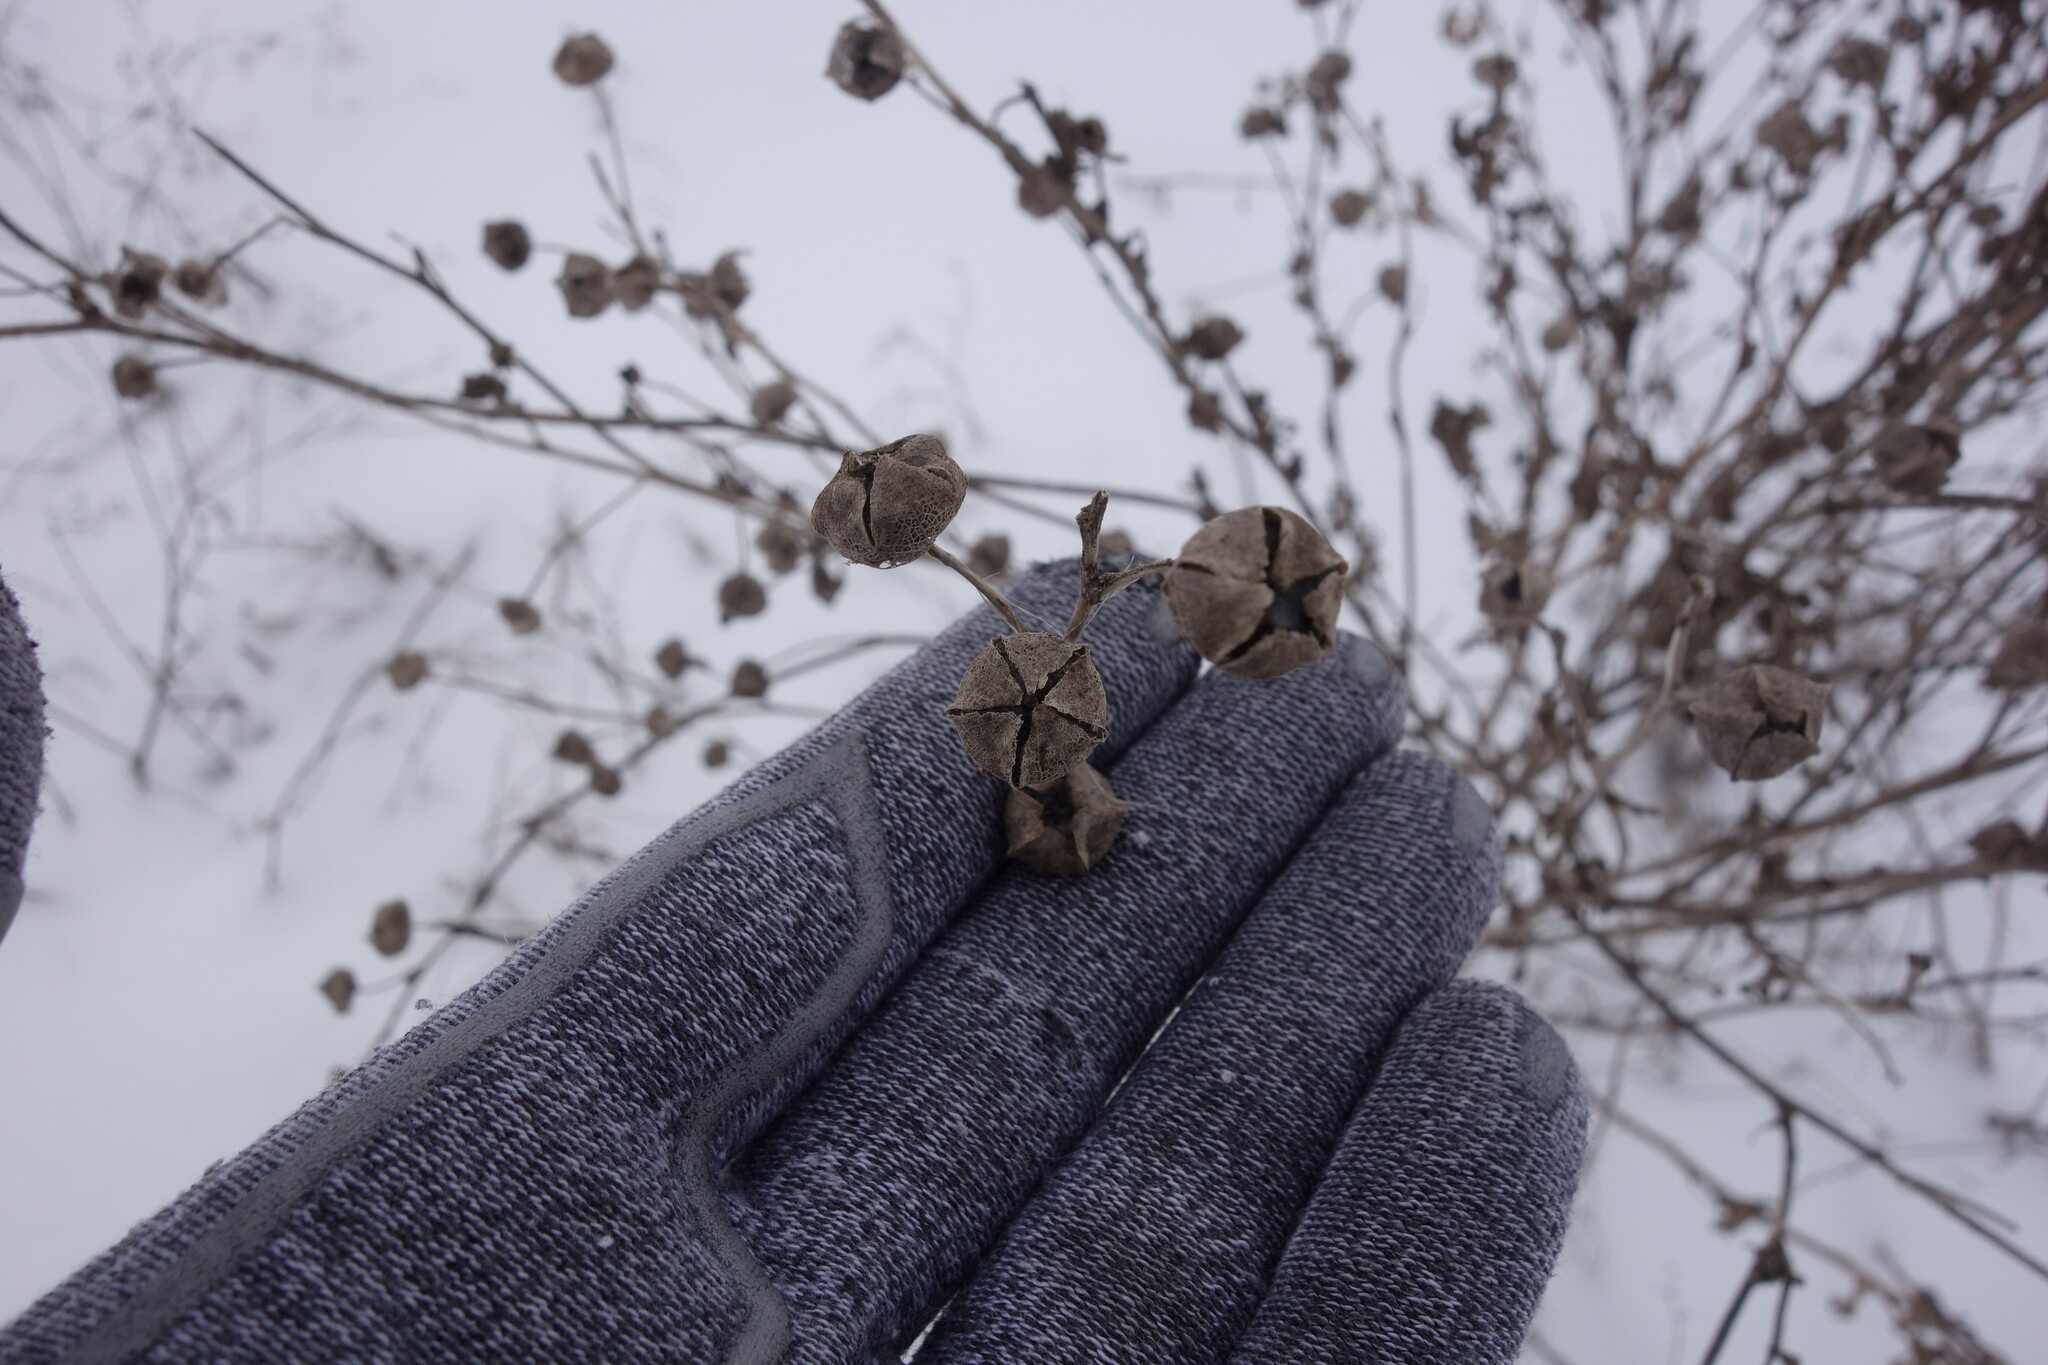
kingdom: Plantae
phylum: Tracheophyta
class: Magnoliopsida
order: Malvales
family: Malvaceae
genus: Malva
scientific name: Malva thuringiaca
